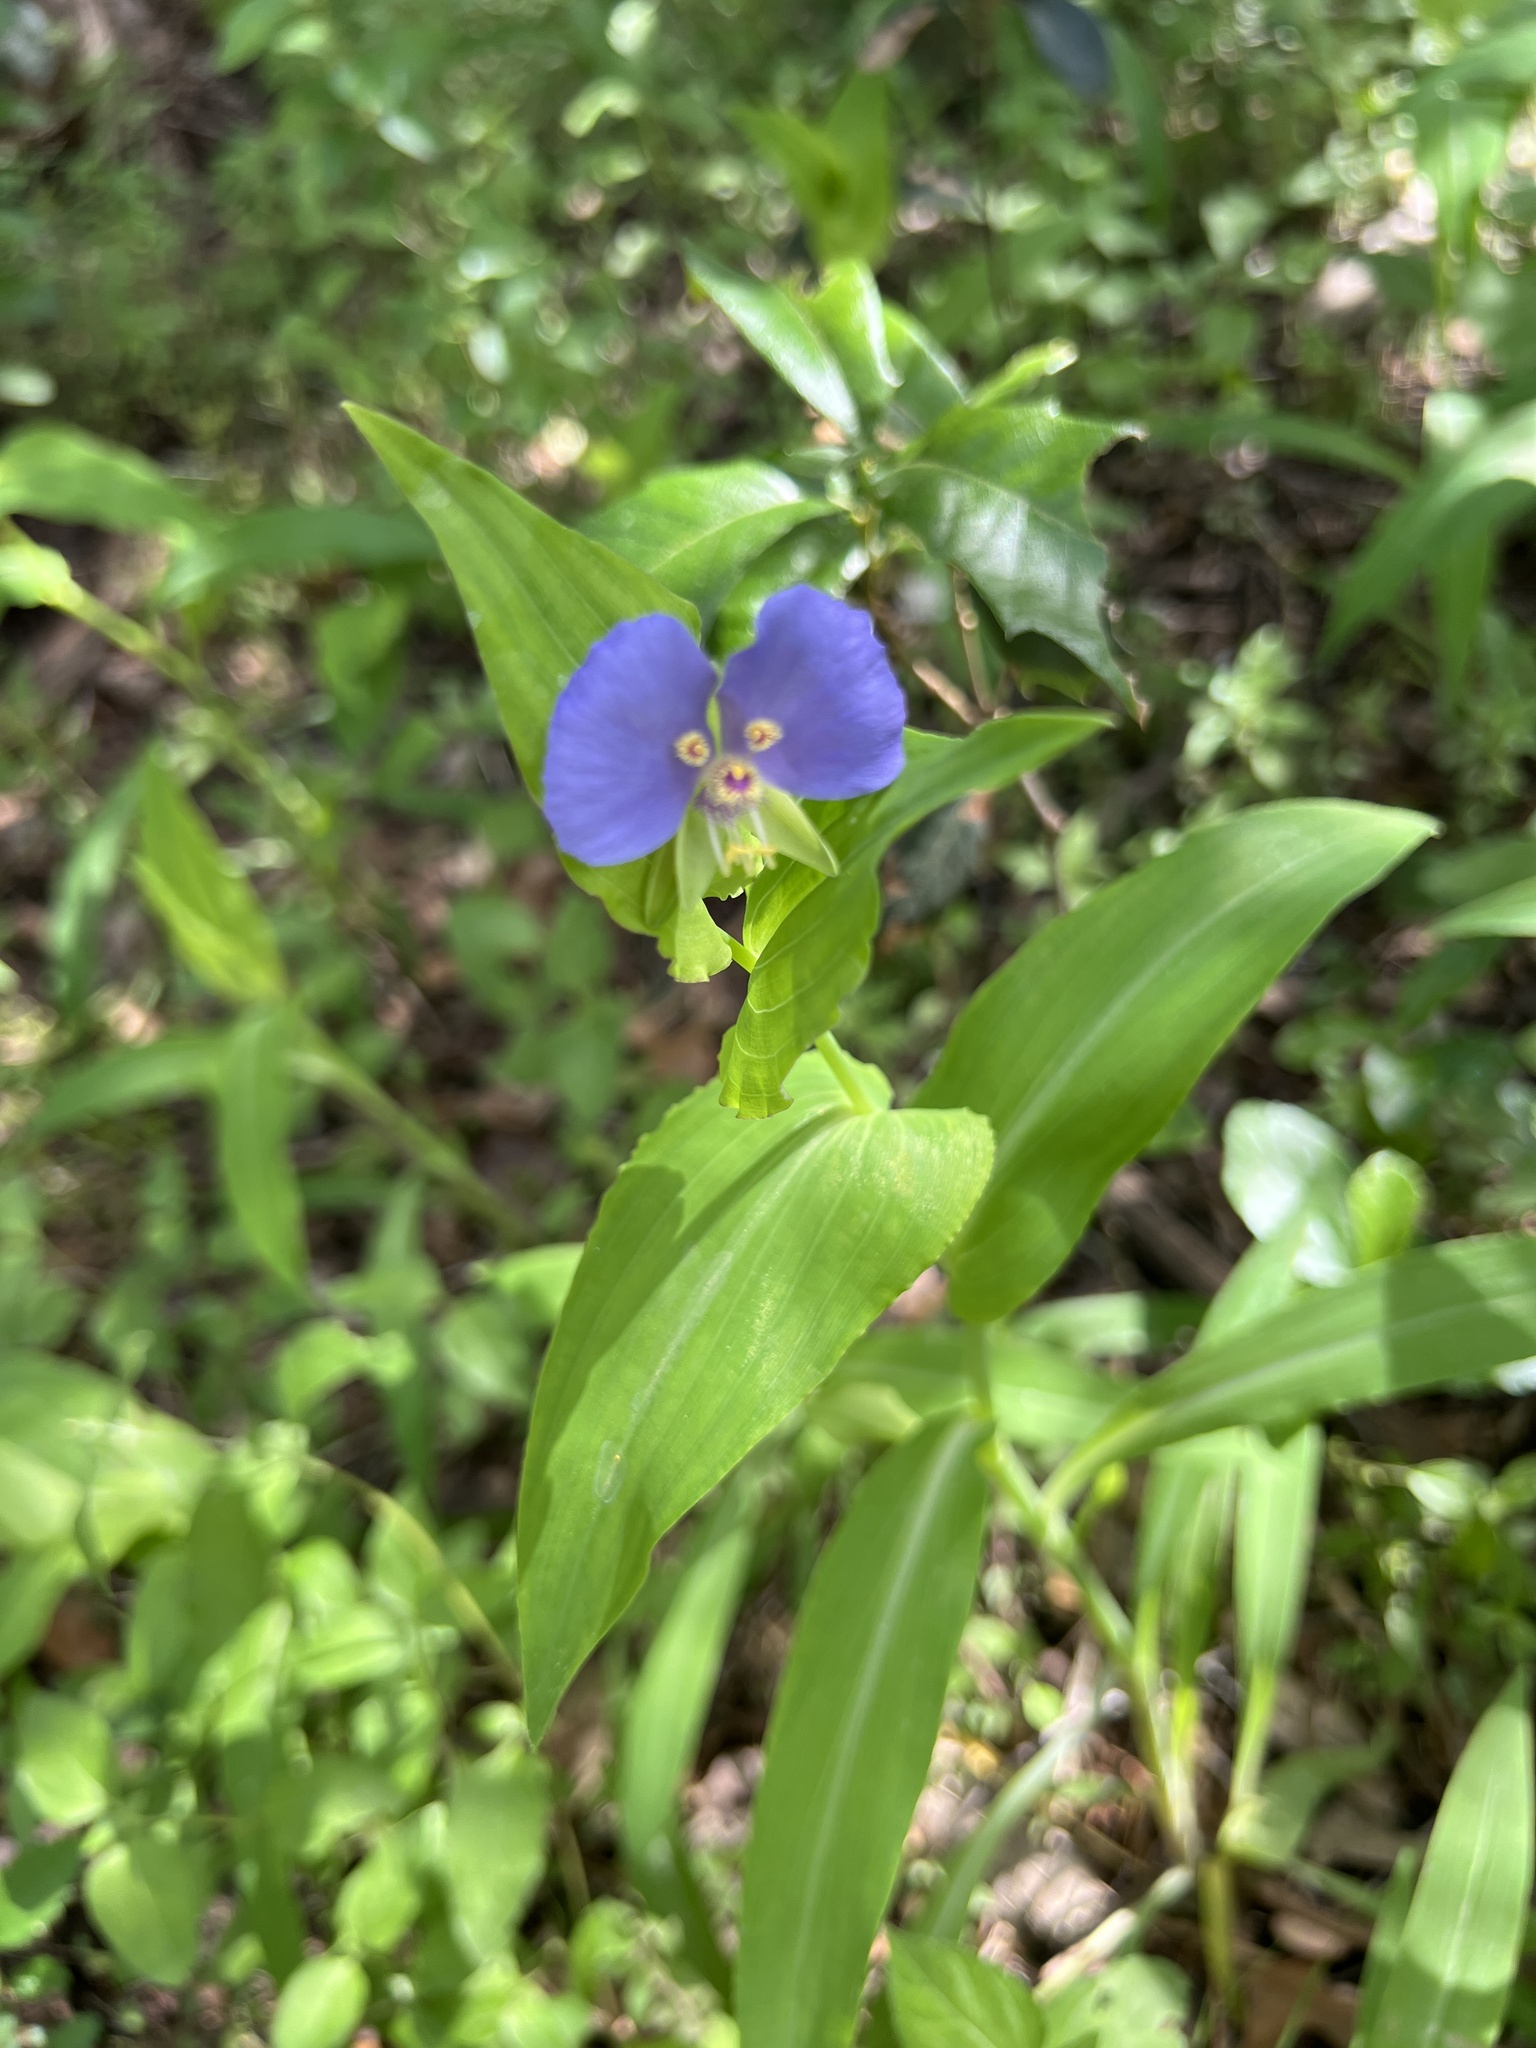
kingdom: Plantae
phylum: Tracheophyta
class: Liliopsida
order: Commelinales
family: Commelinaceae
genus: Tinantia
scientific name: Tinantia anomala
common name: False dayflower
